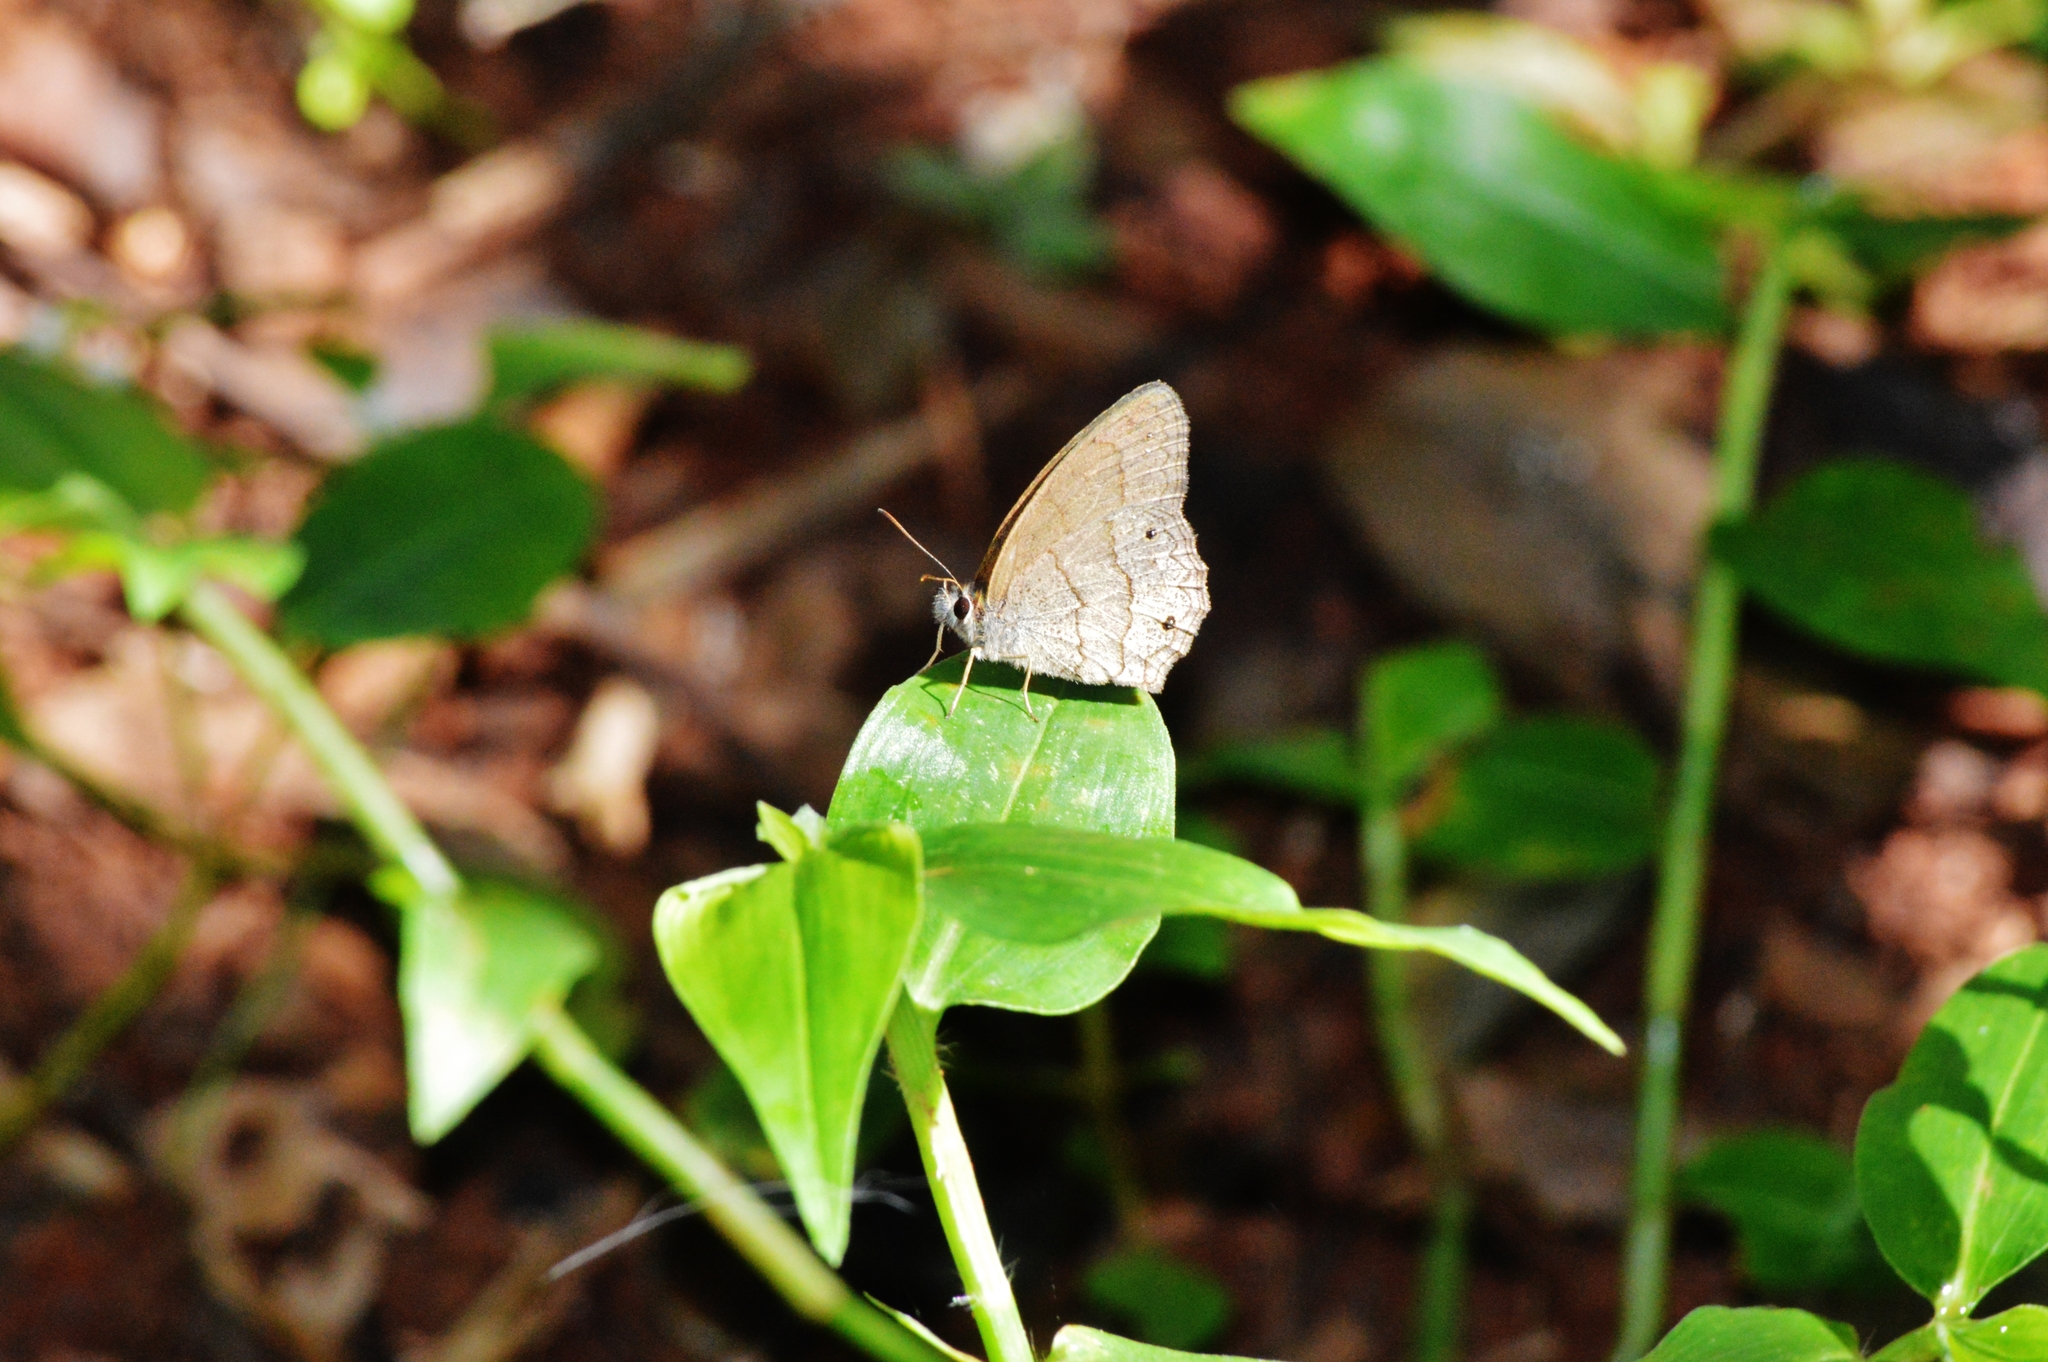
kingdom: Animalia
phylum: Arthropoda
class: Insecta
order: Lepidoptera
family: Nymphalidae
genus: Euptychia
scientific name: Euptychia Cissia eous
